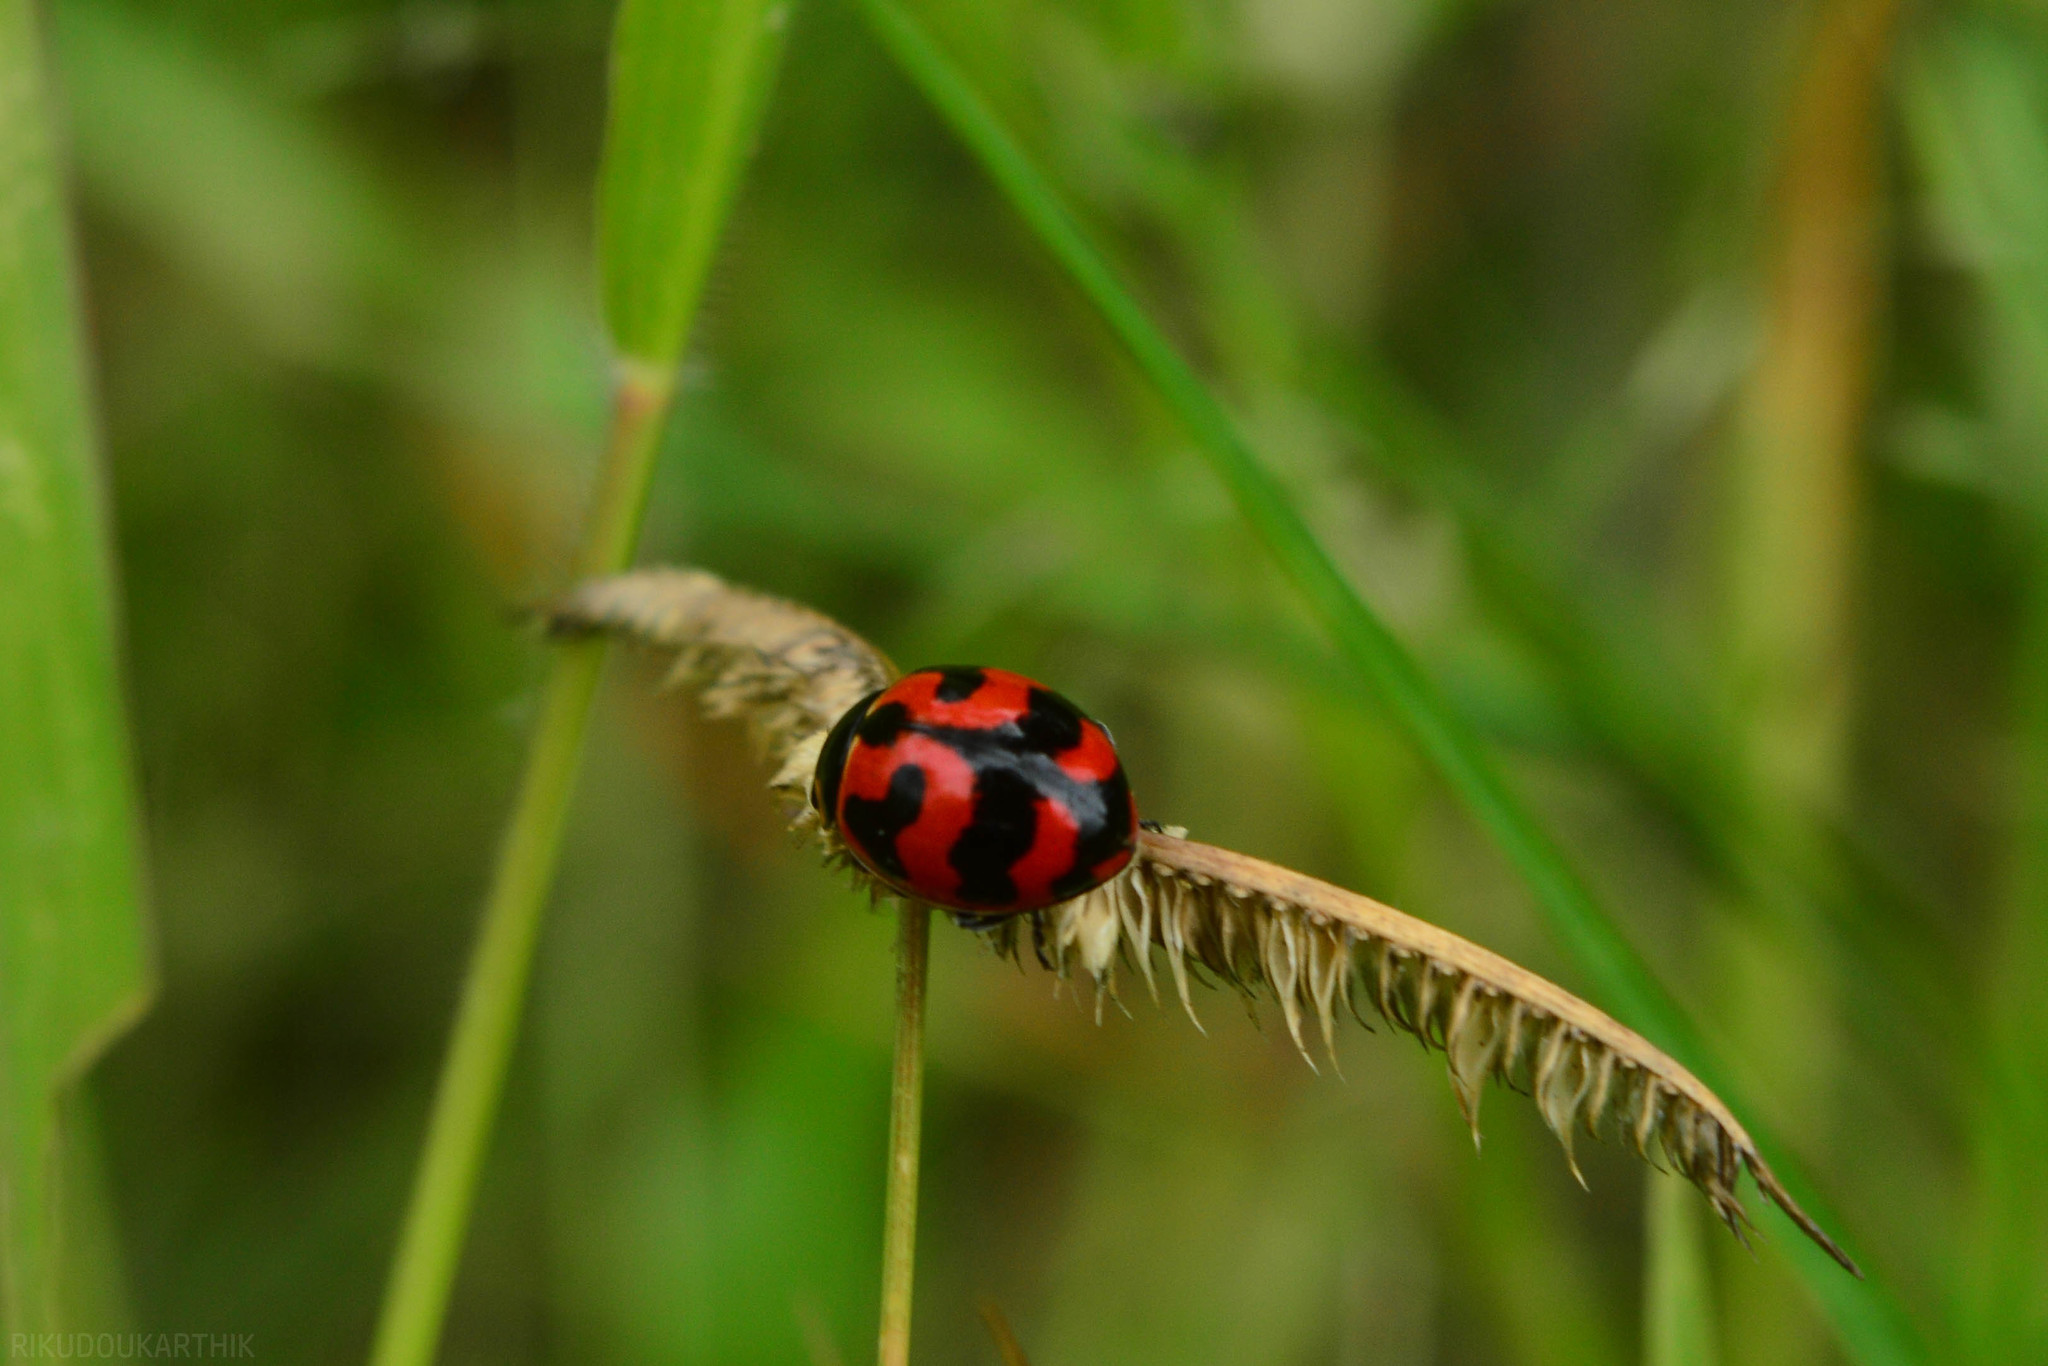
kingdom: Animalia
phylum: Arthropoda
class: Insecta
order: Coleoptera
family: Coccinellidae
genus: Coccinella
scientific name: Coccinella transversalis
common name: Transverse lady beetle
